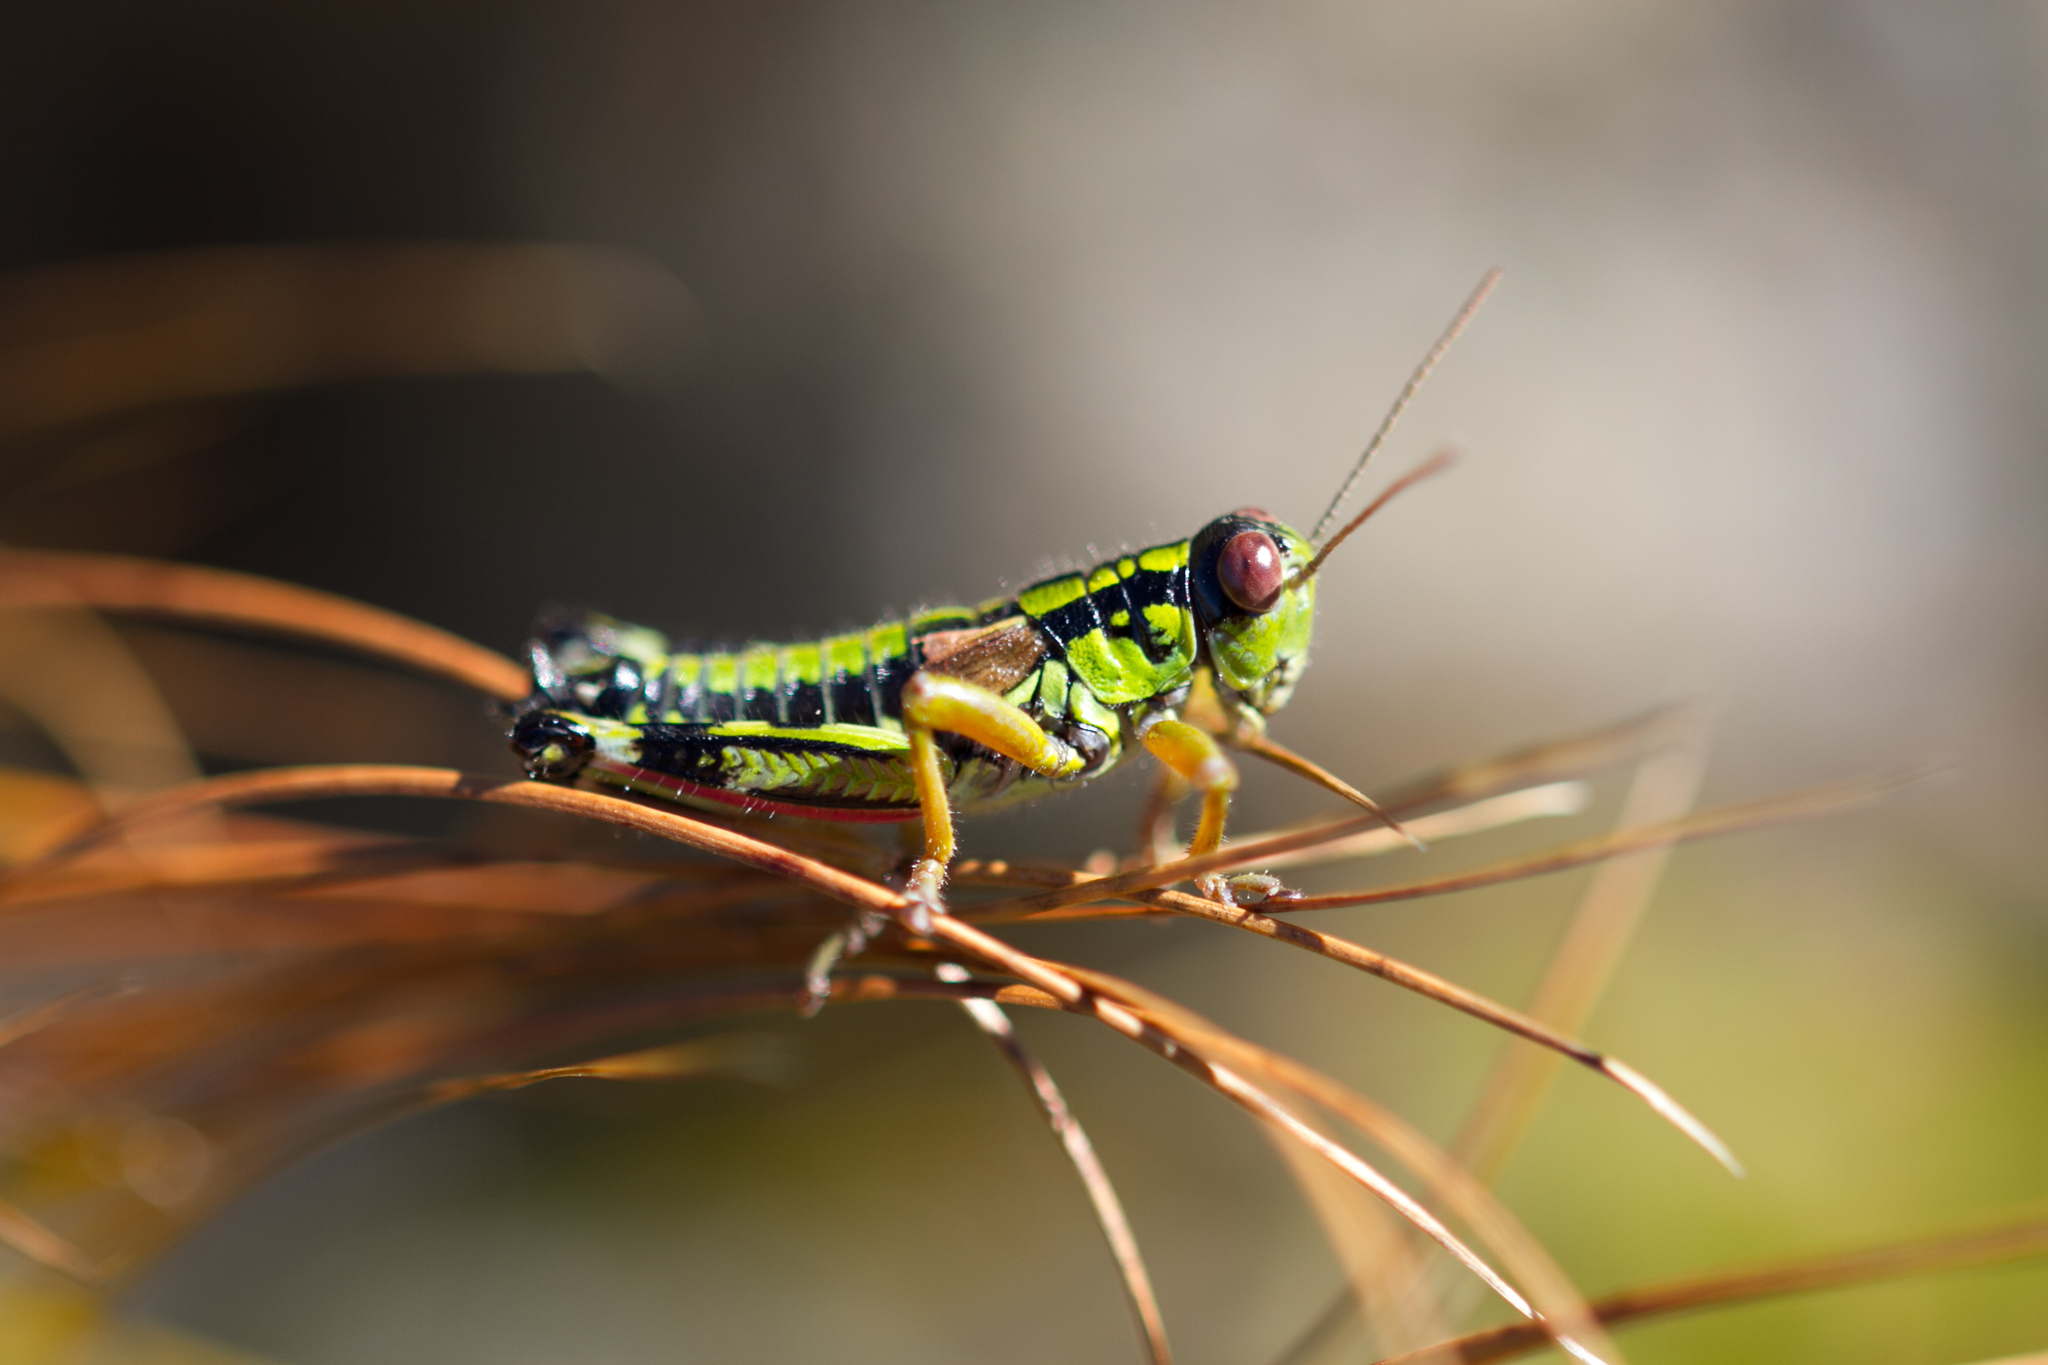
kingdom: Animalia
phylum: Arthropoda
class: Insecta
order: Orthoptera
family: Acrididae
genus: Miramella
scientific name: Miramella alpina
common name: Green mountain grasshopper
